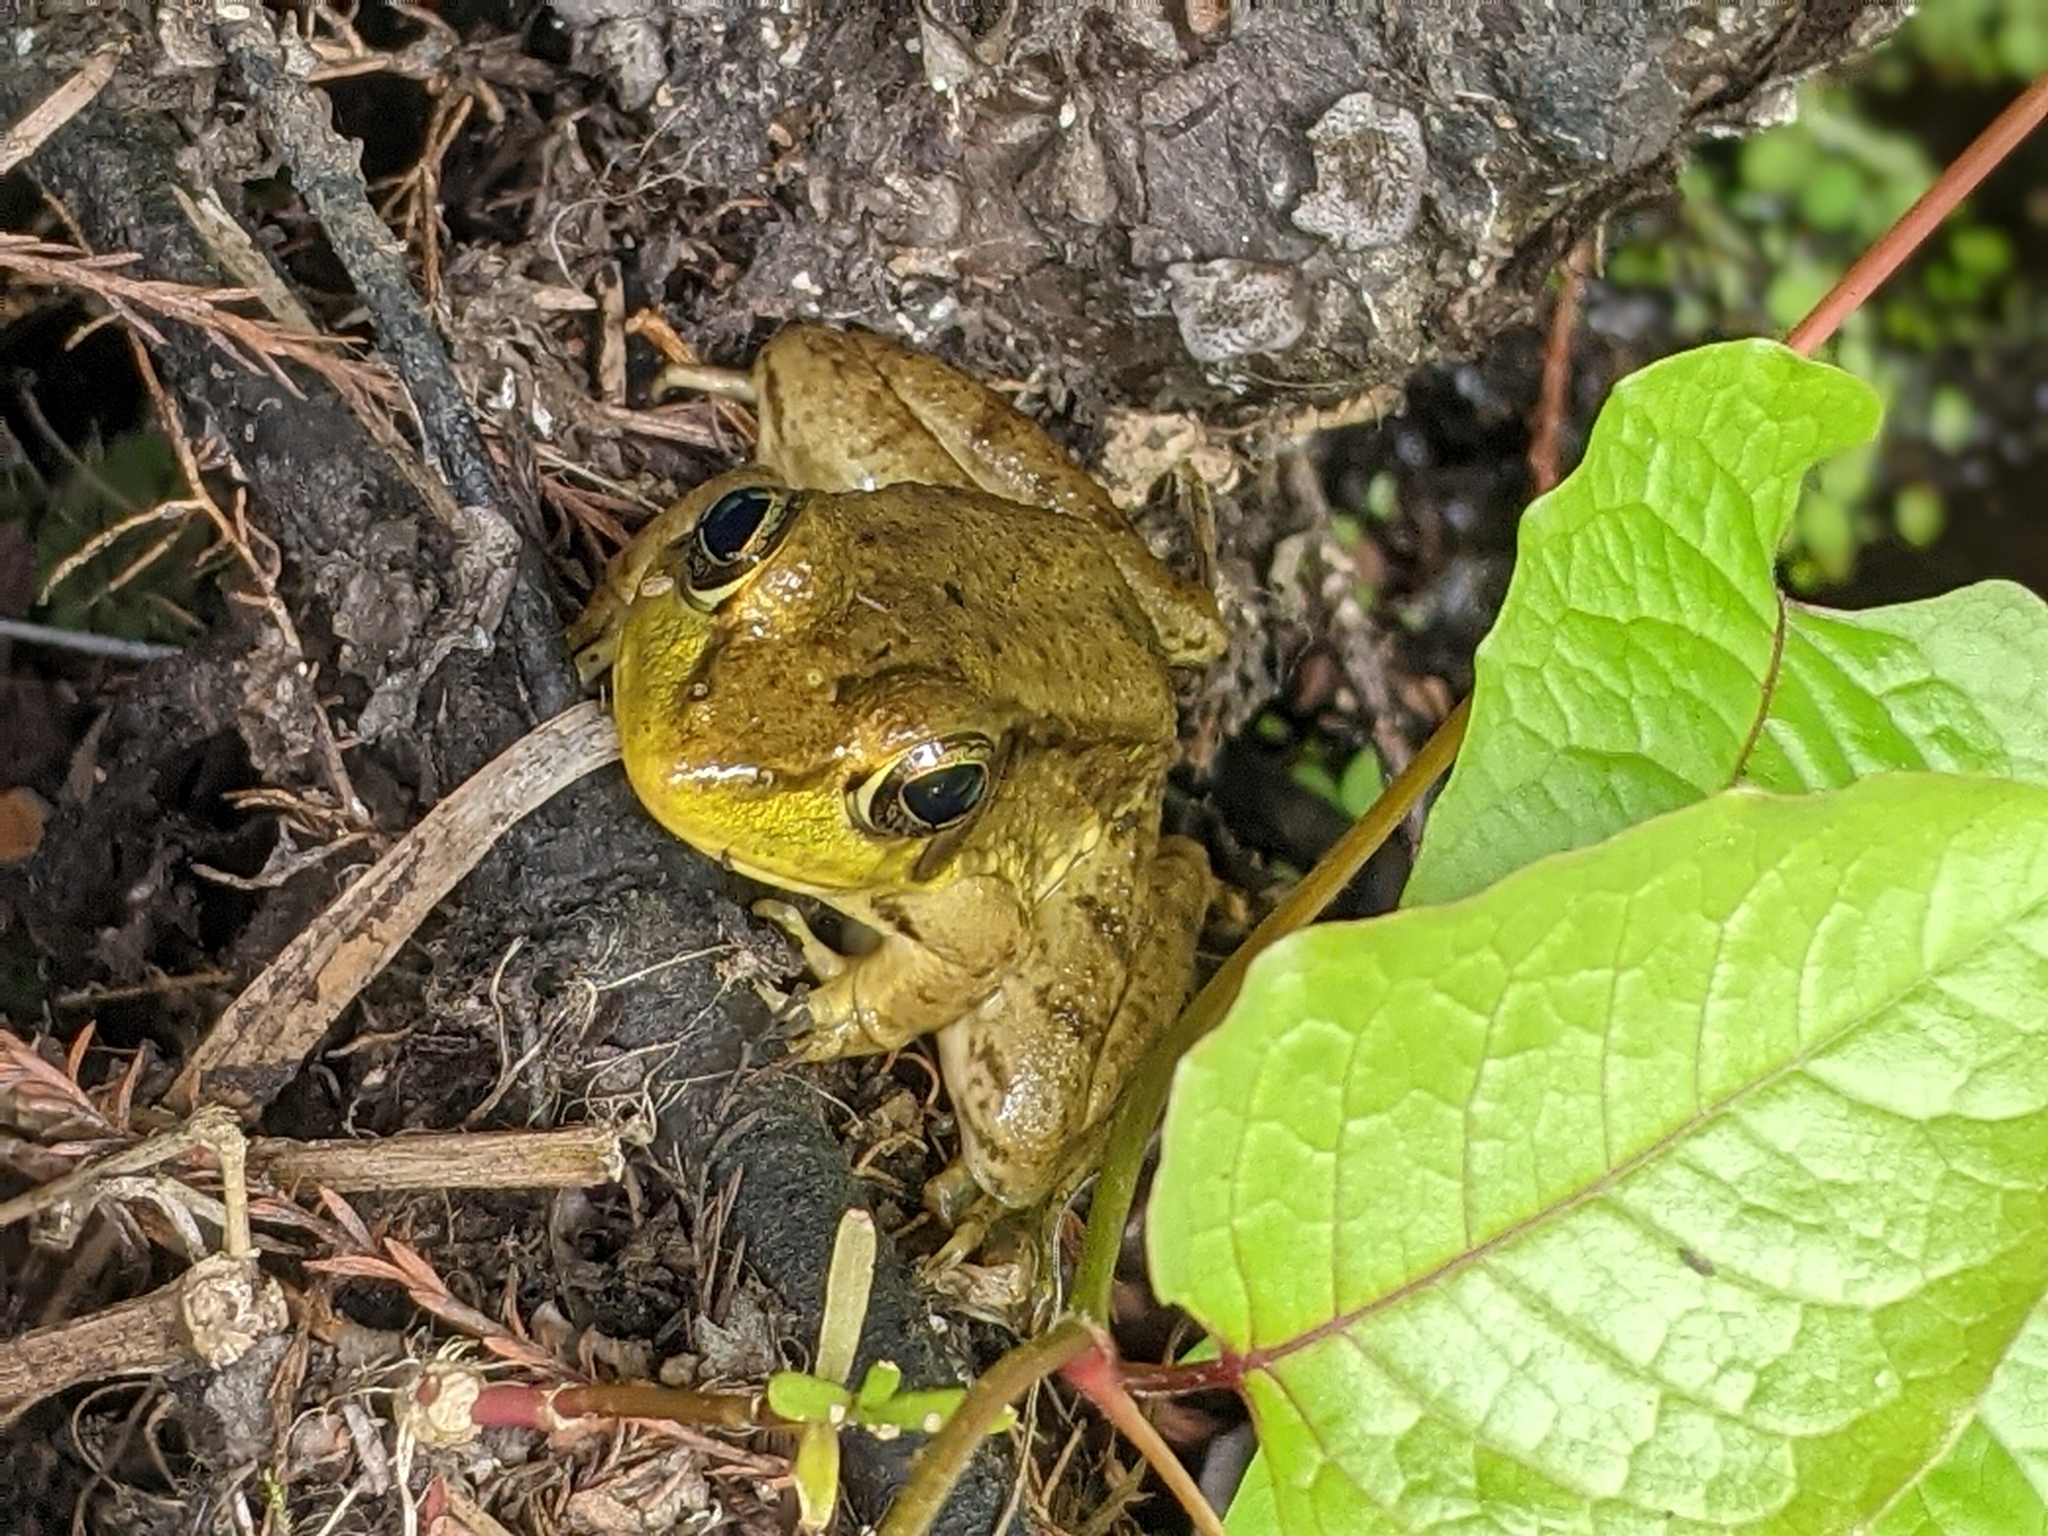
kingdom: Animalia
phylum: Chordata
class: Amphibia
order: Anura
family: Ranidae
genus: Lithobates
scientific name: Lithobates clamitans
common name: Green frog
